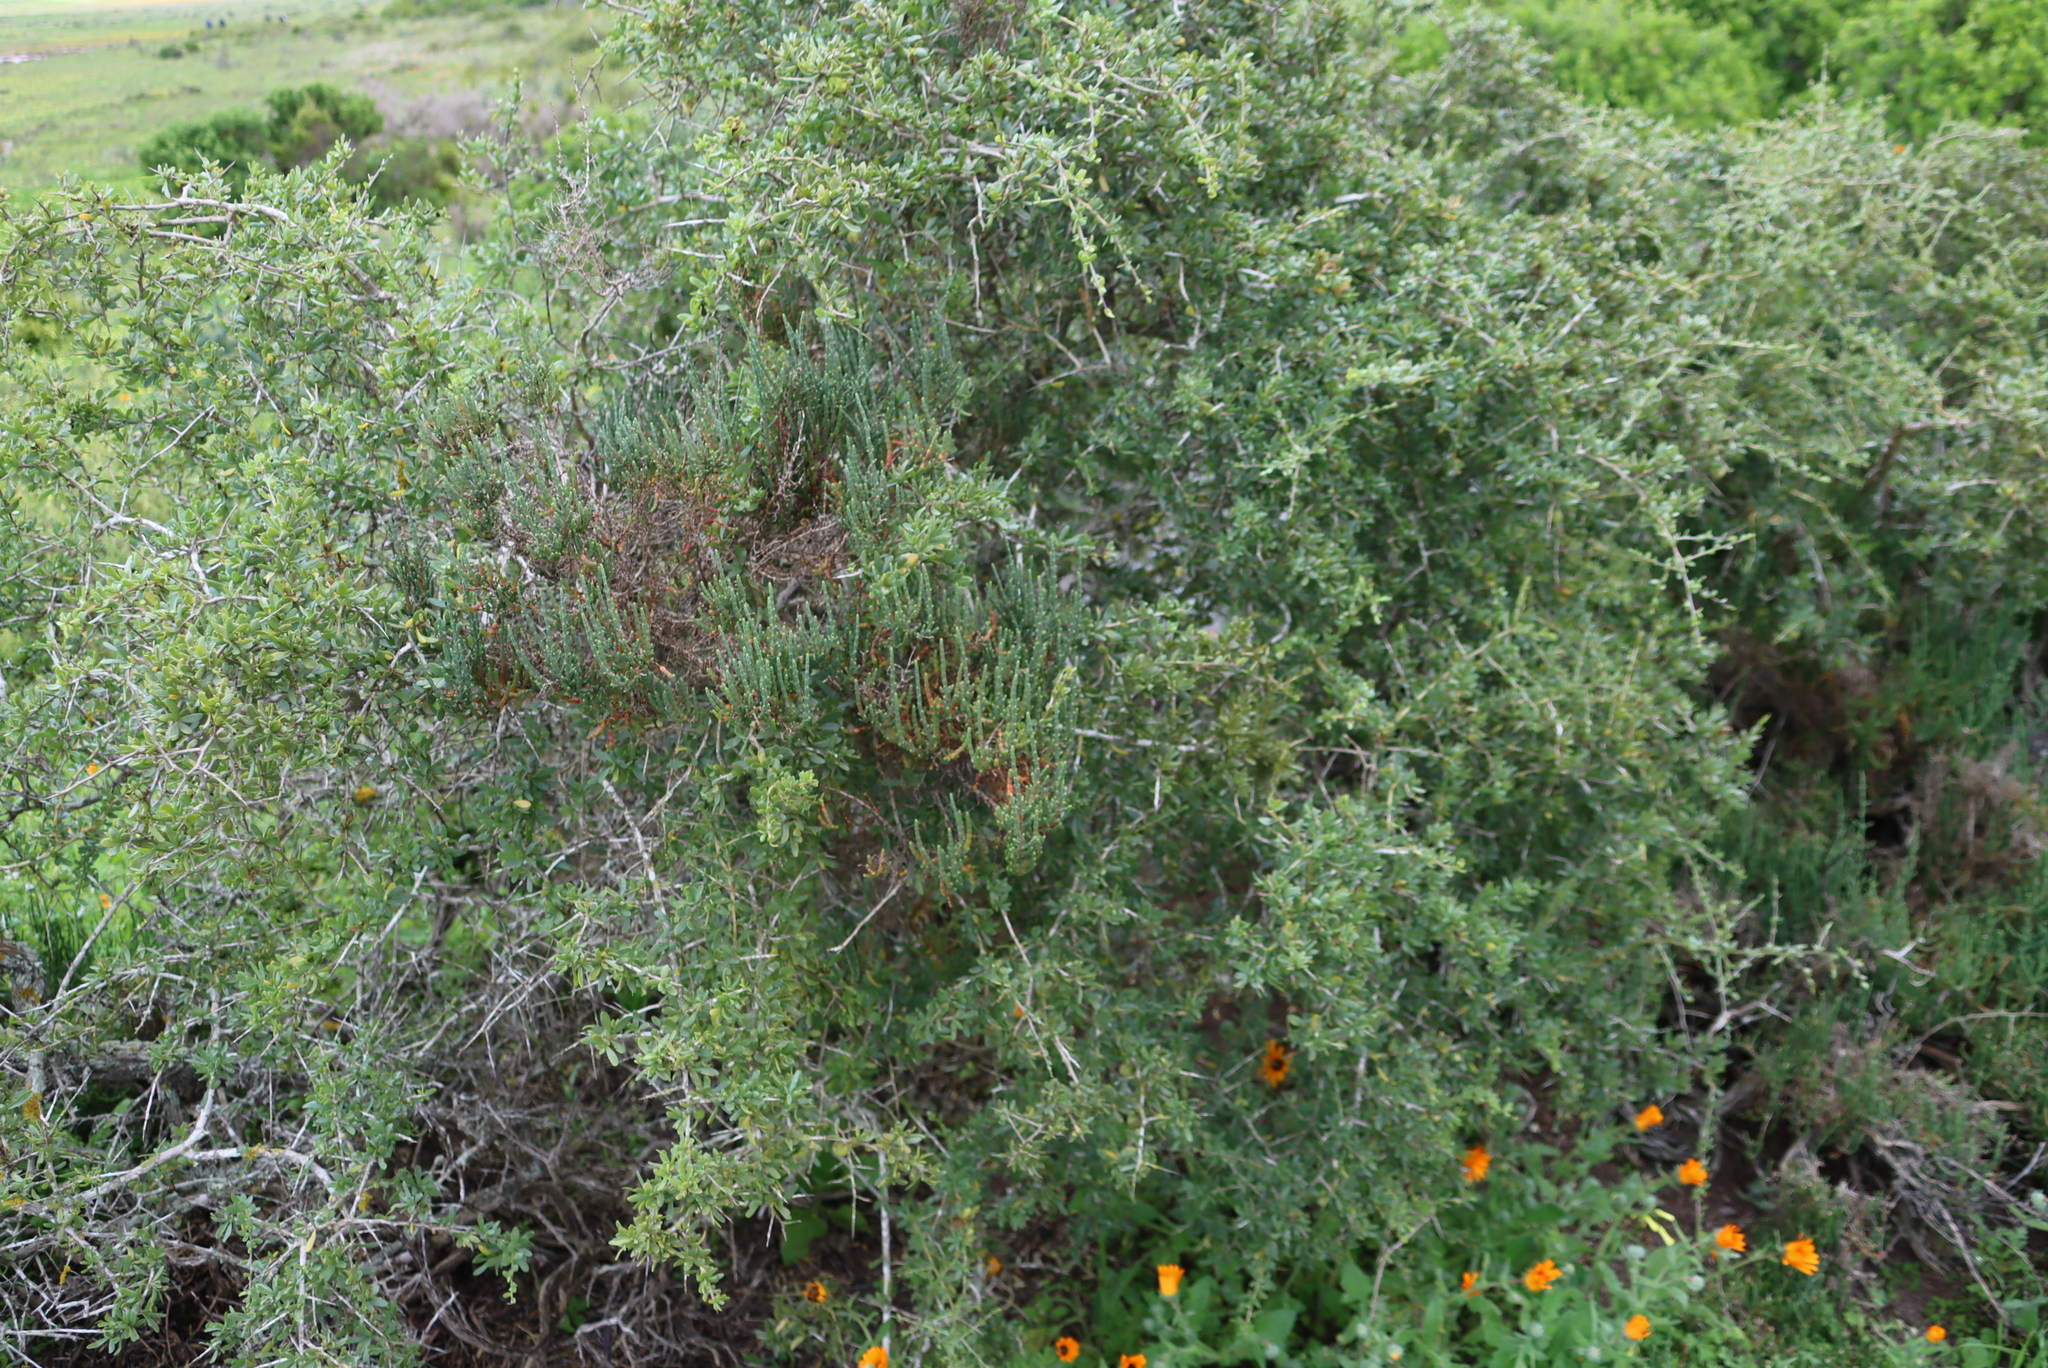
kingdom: Plantae
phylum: Tracheophyta
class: Magnoliopsida
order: Caryophyllales
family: Amaranthaceae
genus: Salicornia
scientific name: Salicornia littorea
